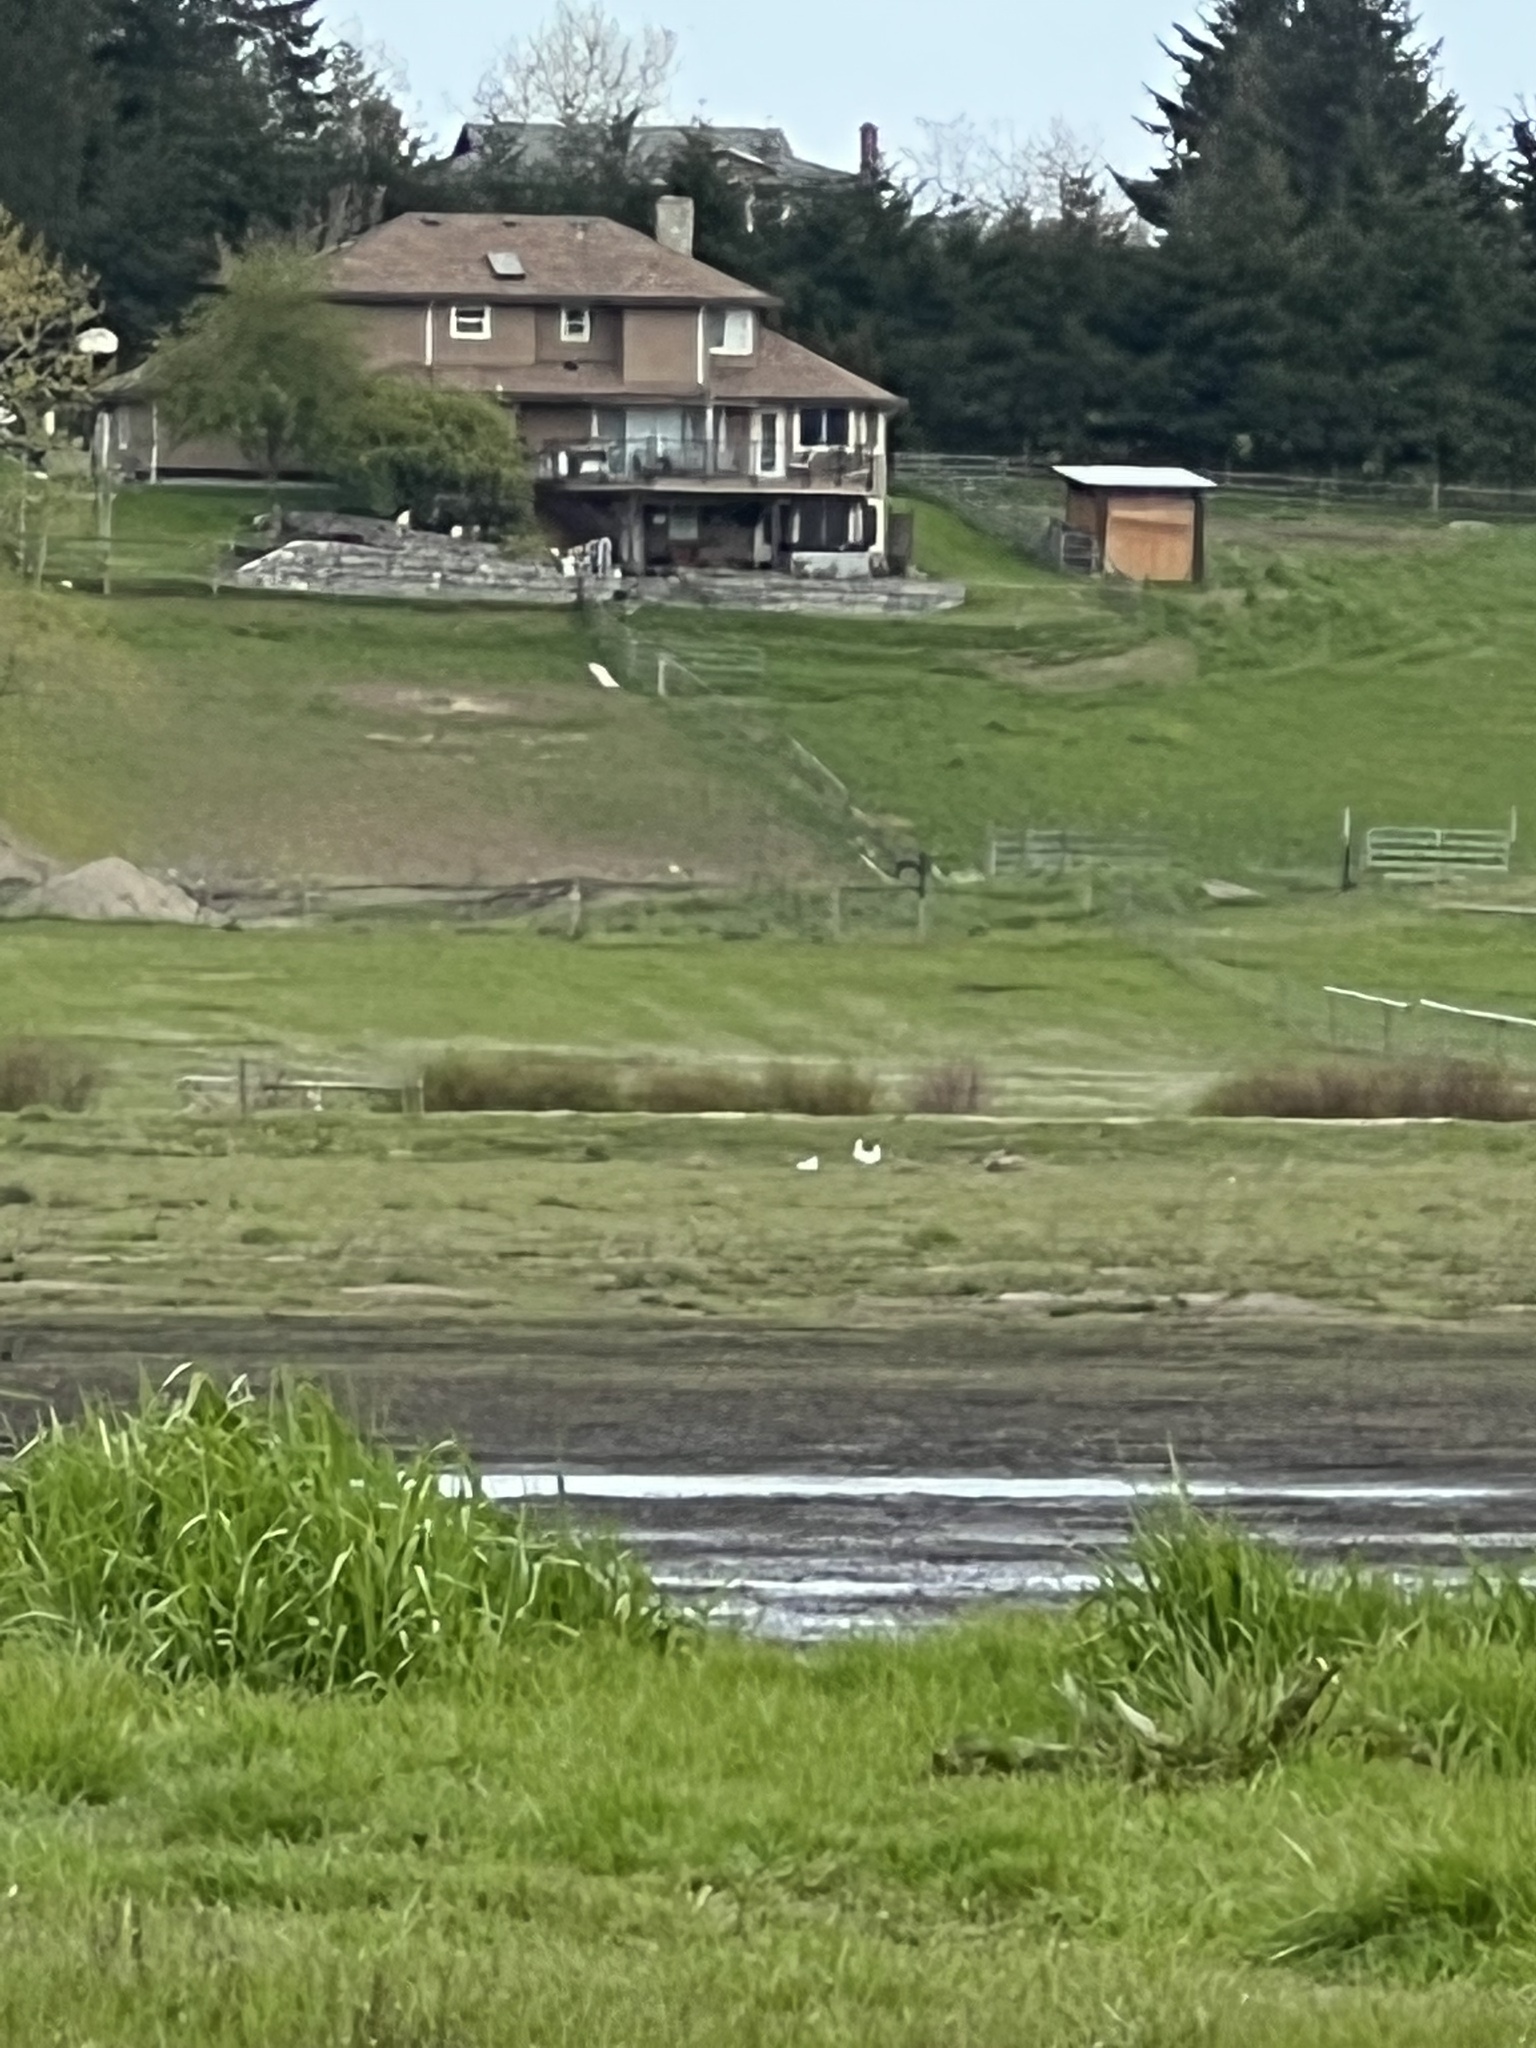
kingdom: Animalia
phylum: Chordata
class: Aves
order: Anseriformes
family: Anatidae
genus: Anser
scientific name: Anser rossii
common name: Ross's goose
